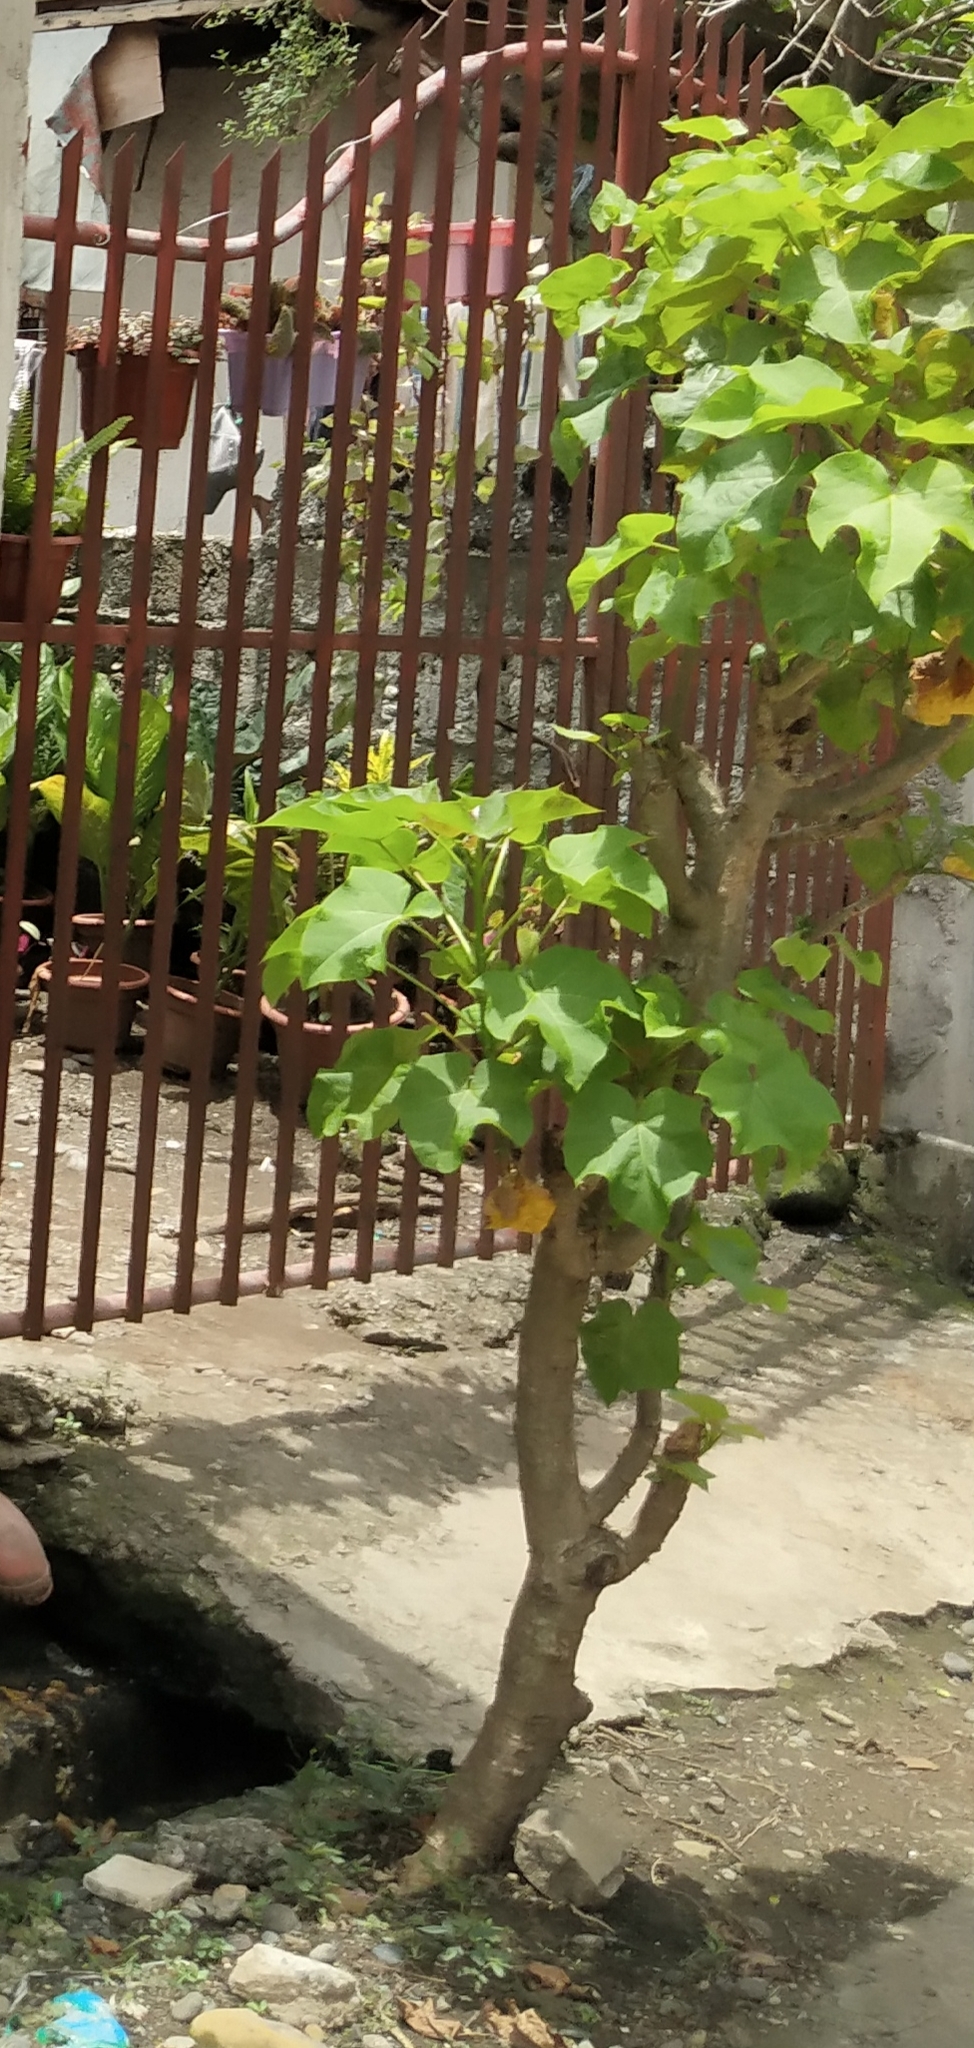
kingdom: Plantae
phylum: Tracheophyta
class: Magnoliopsida
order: Malpighiales
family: Euphorbiaceae
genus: Jatropha
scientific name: Jatropha curcas
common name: Barbados nut
